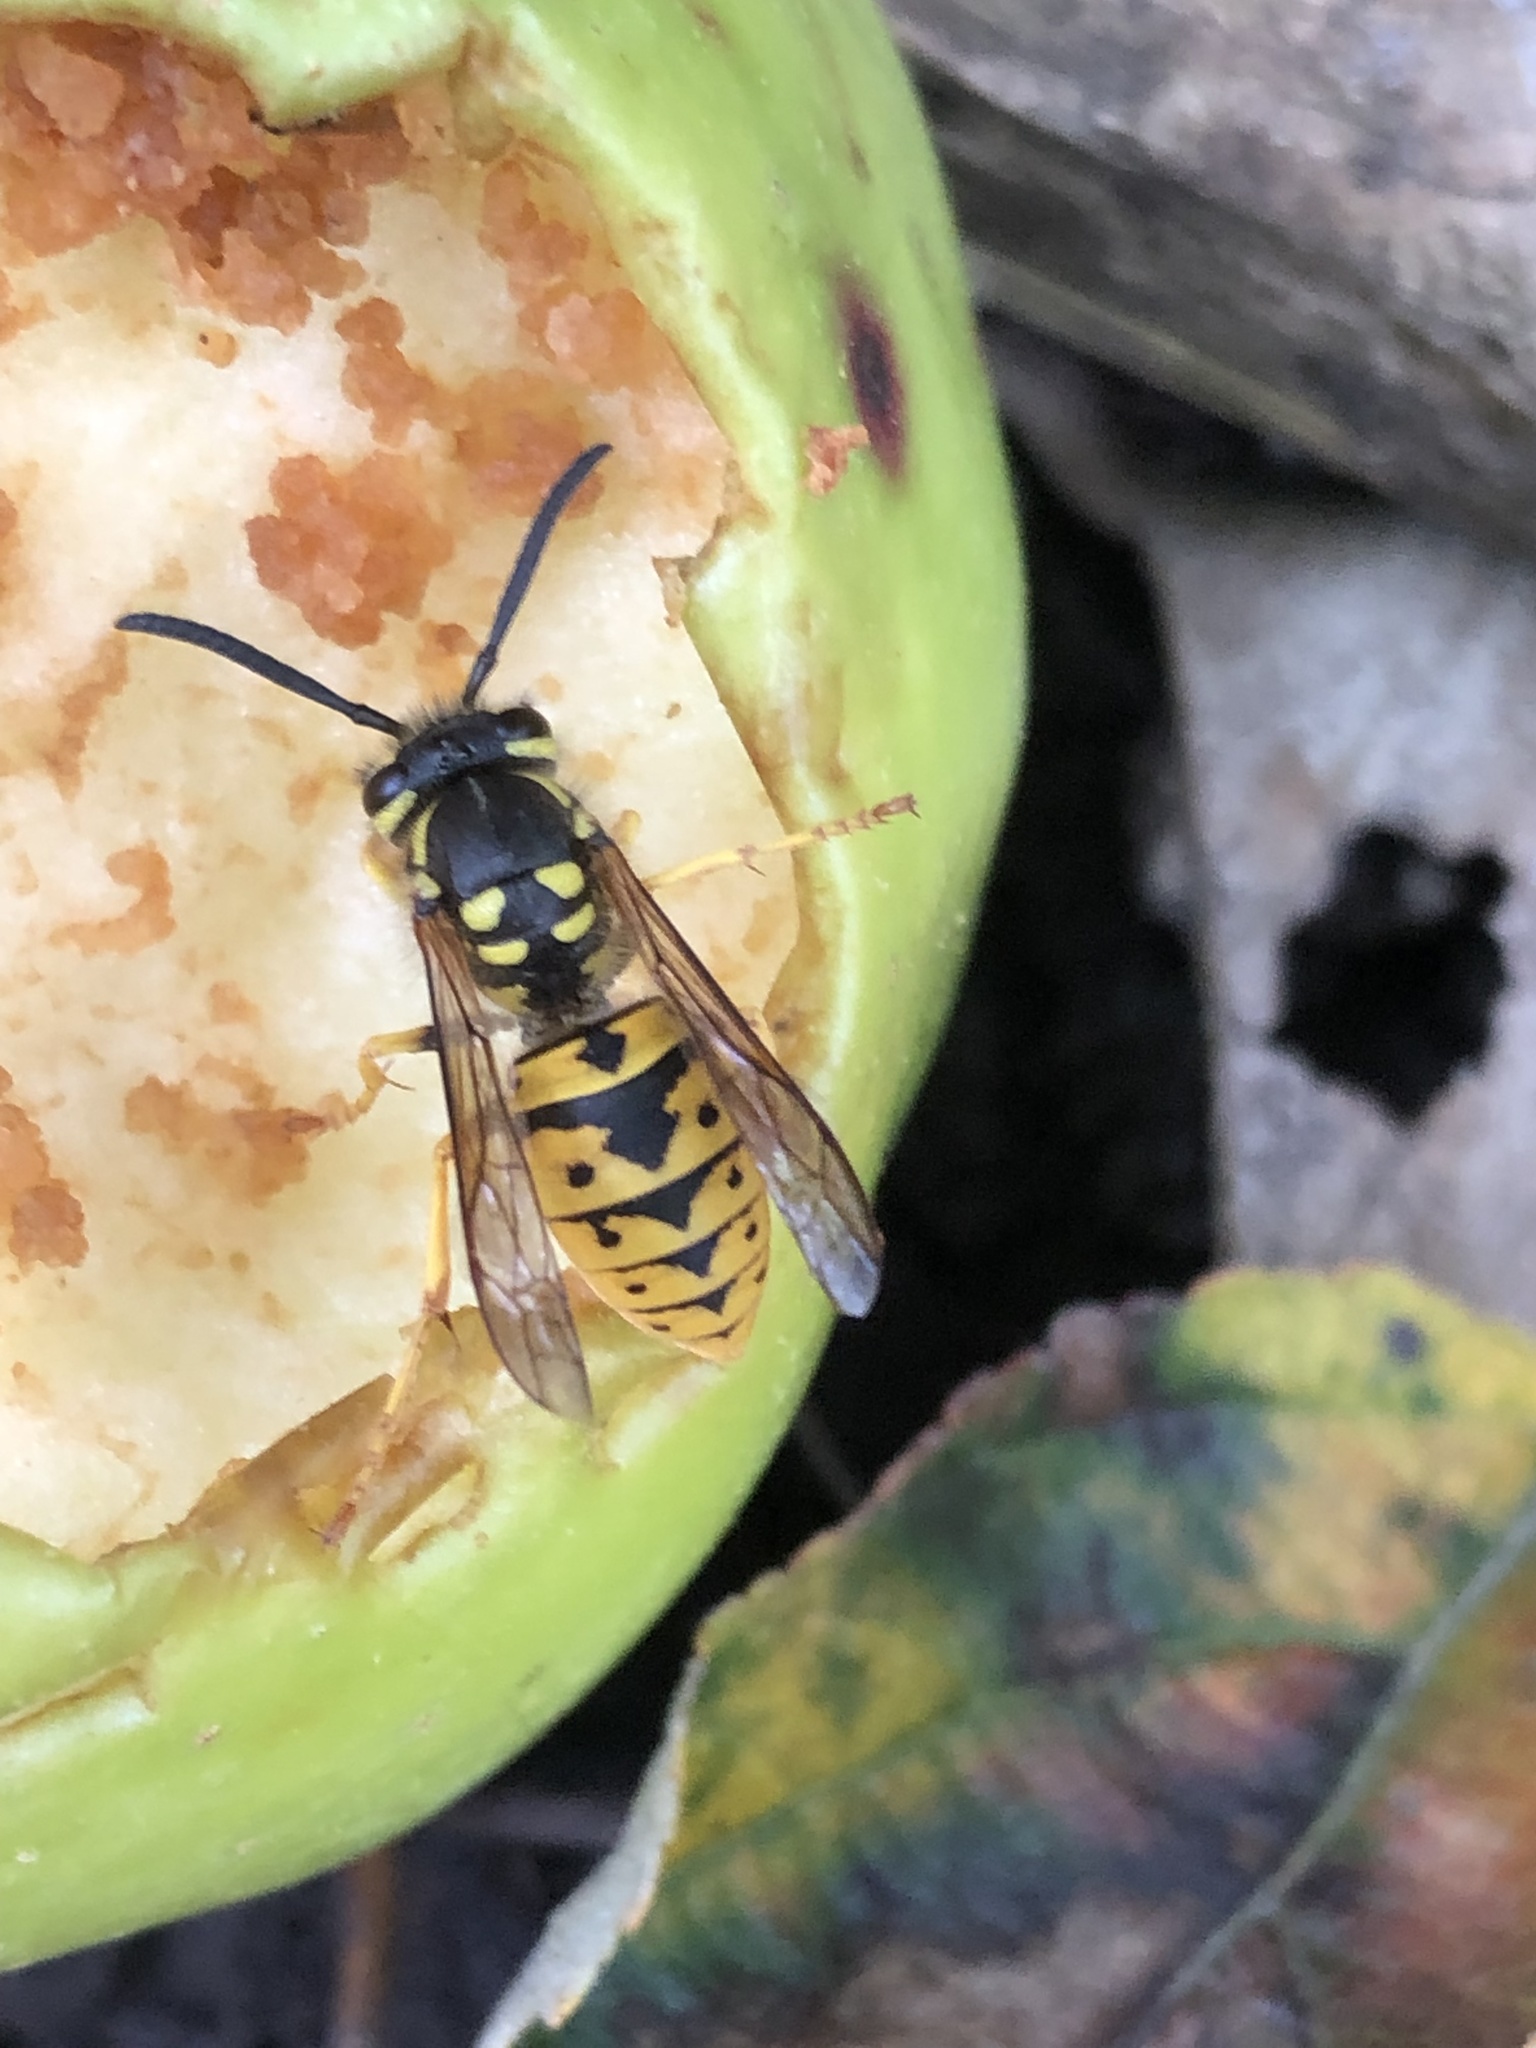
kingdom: Animalia
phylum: Arthropoda
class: Insecta
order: Hymenoptera
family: Vespidae
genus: Vespula
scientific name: Vespula germanica
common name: German wasp
